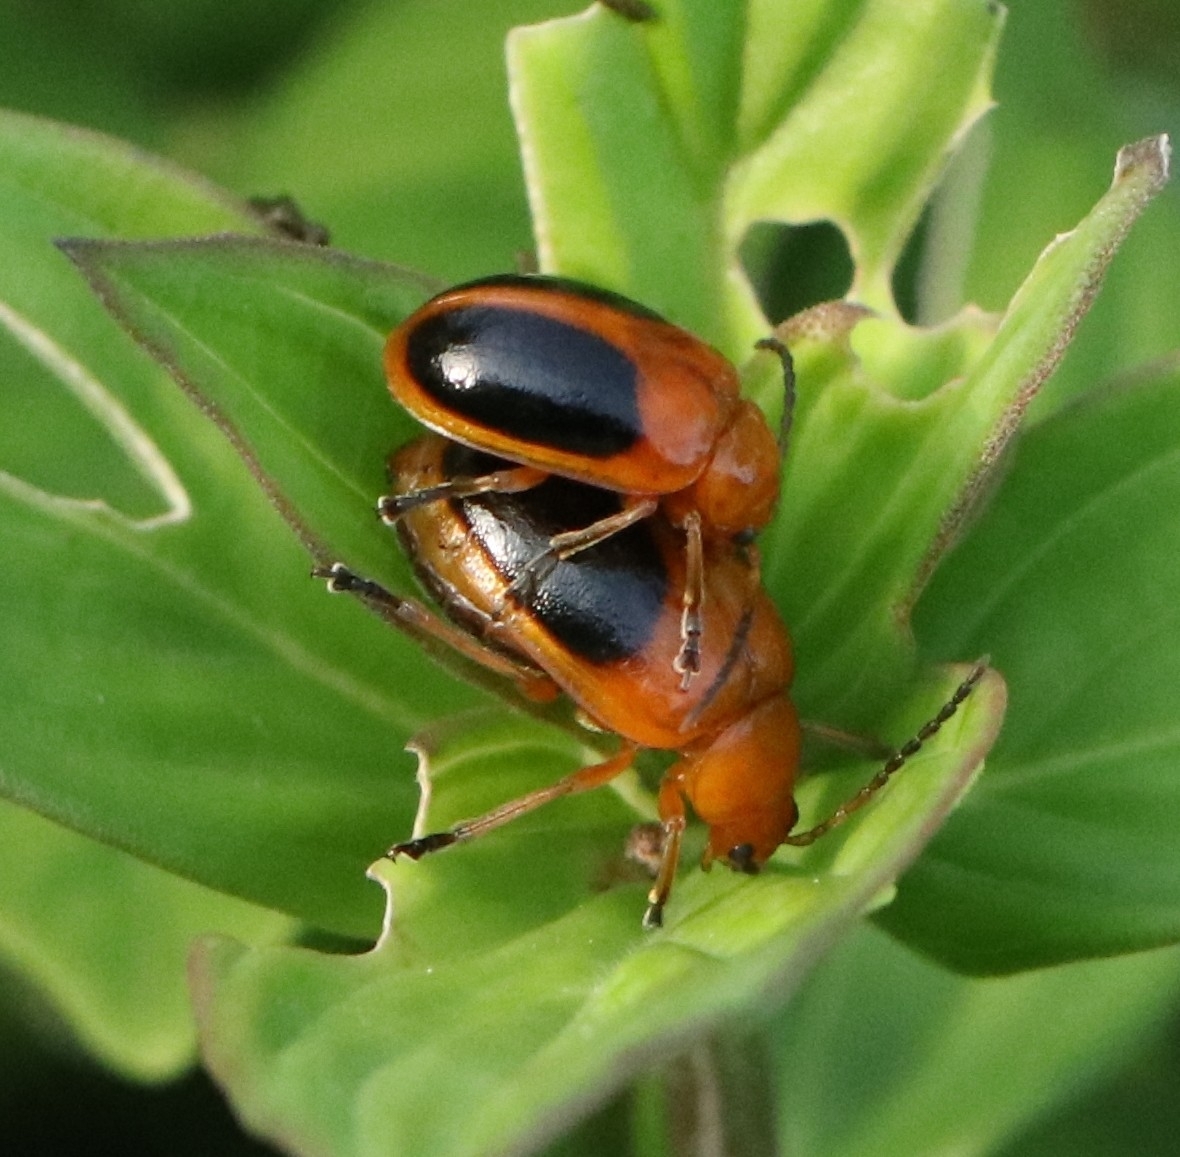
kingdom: Animalia
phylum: Arthropoda
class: Insecta
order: Coleoptera
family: Chrysomelidae
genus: Oides
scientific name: Oides affinis
